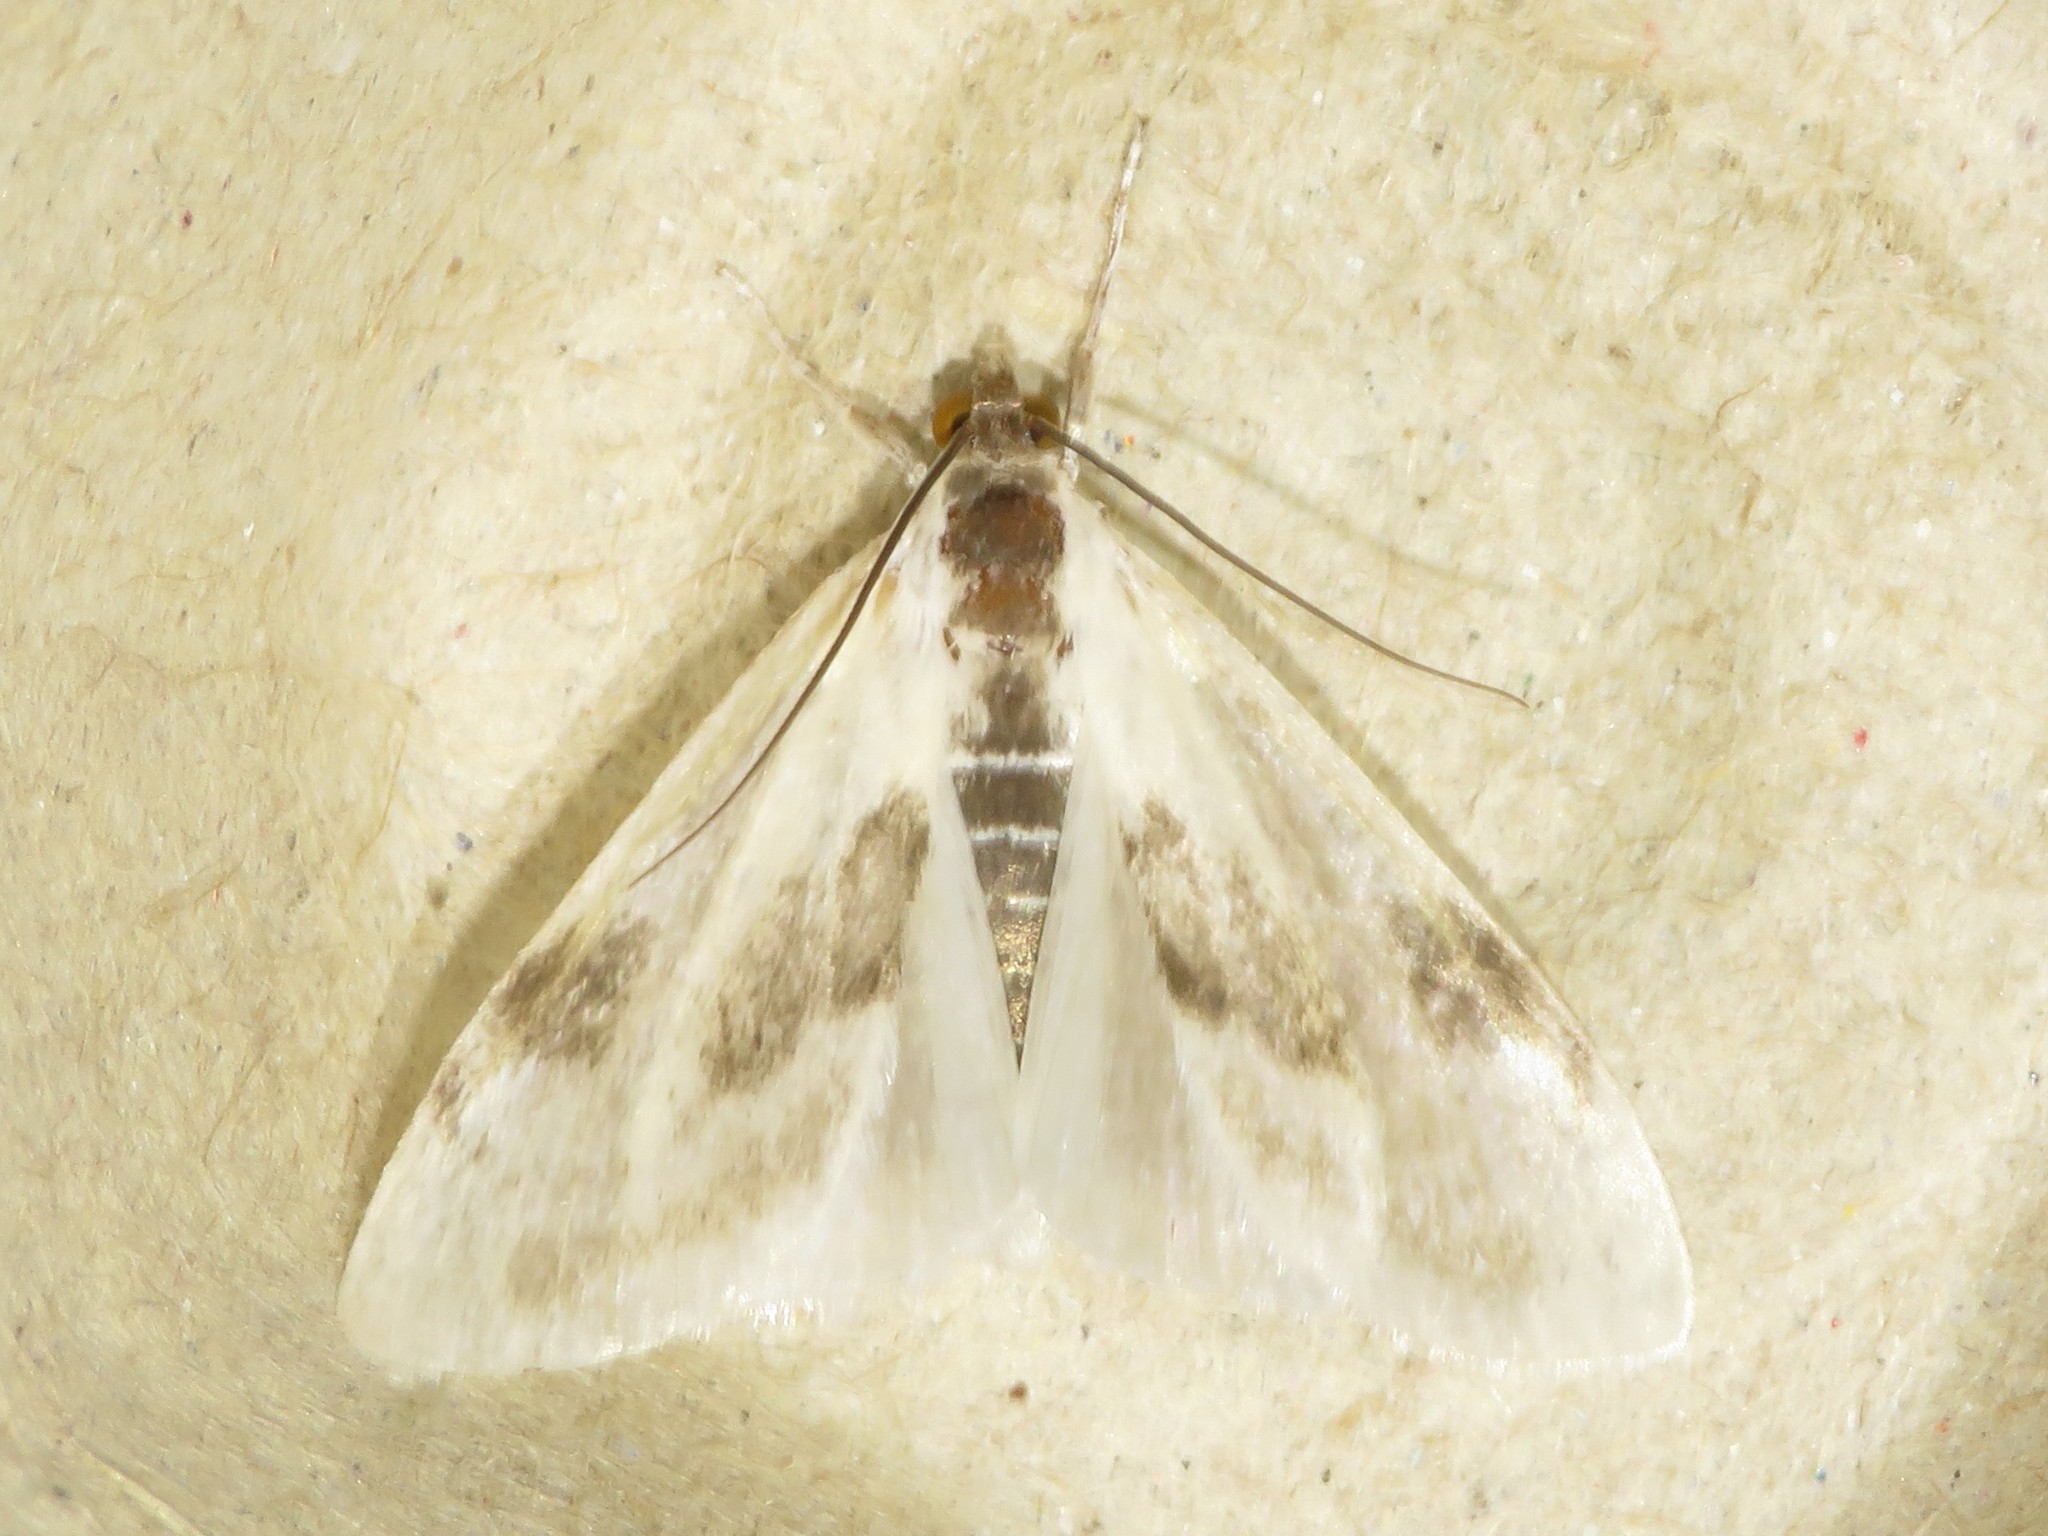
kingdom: Animalia
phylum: Arthropoda
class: Insecta
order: Lepidoptera
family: Crambidae
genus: Cliniodes
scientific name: Cliniodes
